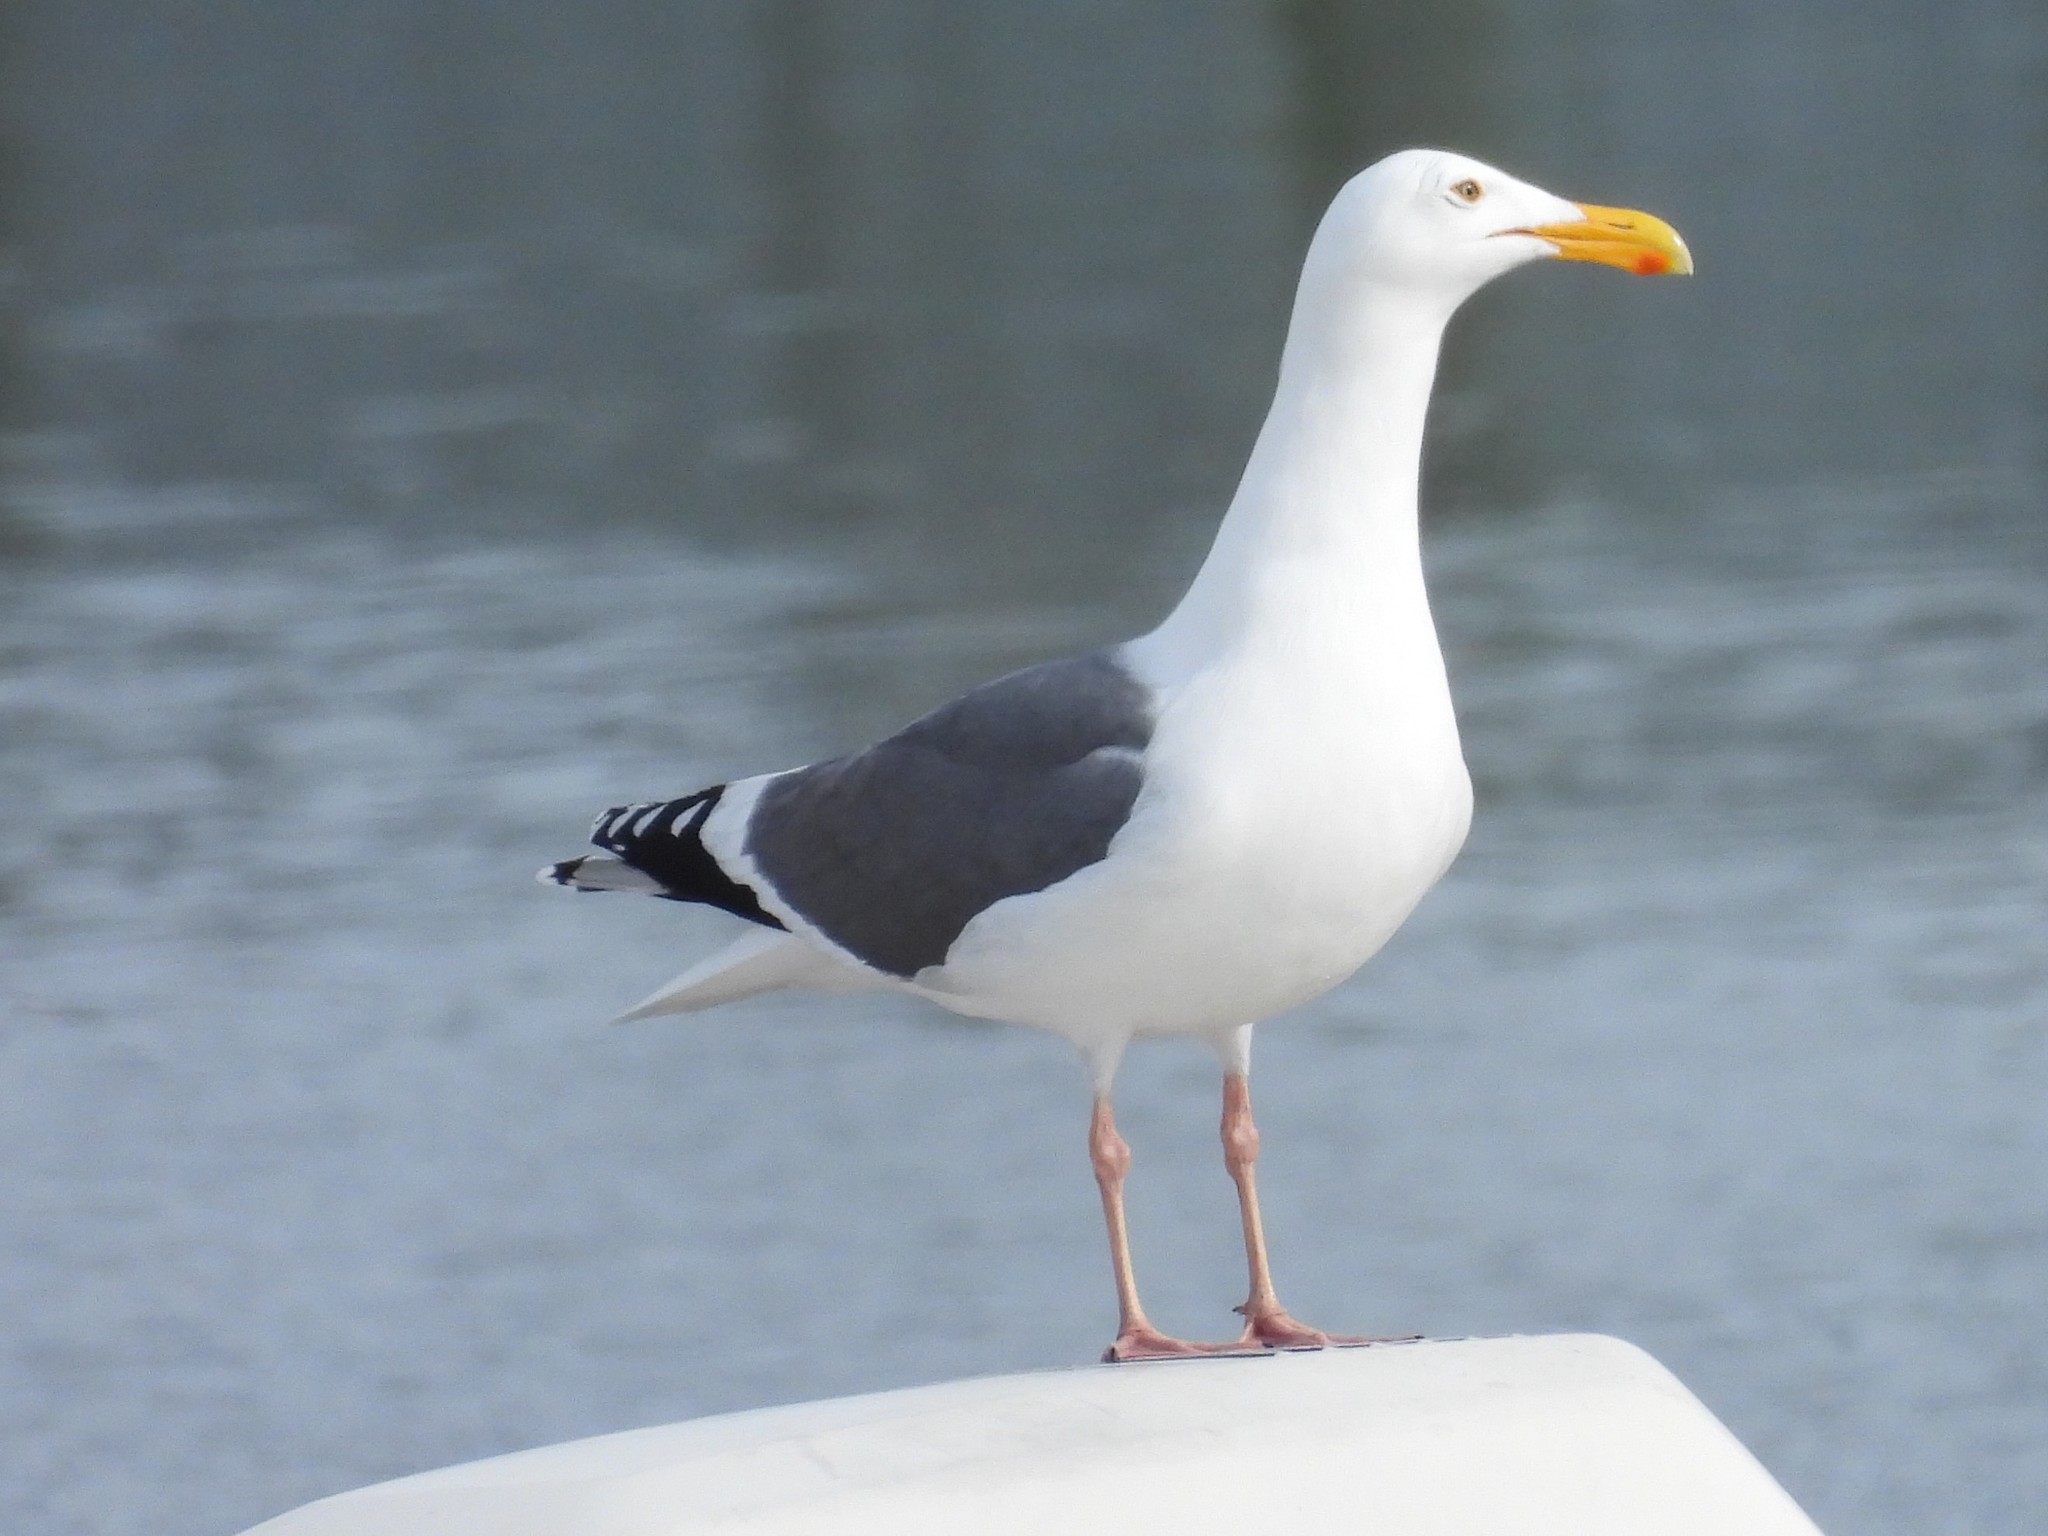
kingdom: Animalia
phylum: Chordata
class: Aves
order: Charadriiformes
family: Laridae
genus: Larus
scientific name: Larus occidentalis
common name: Western gull
